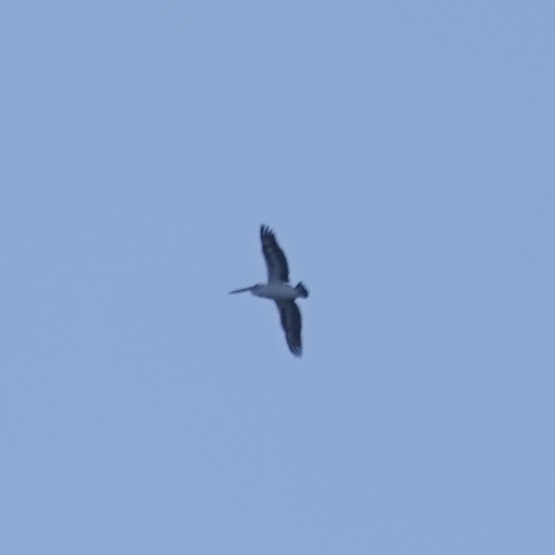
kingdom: Animalia
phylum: Chordata
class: Aves
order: Pelecaniformes
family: Pelecanidae
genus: Pelecanus
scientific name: Pelecanus conspicillatus
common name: Australian pelican
